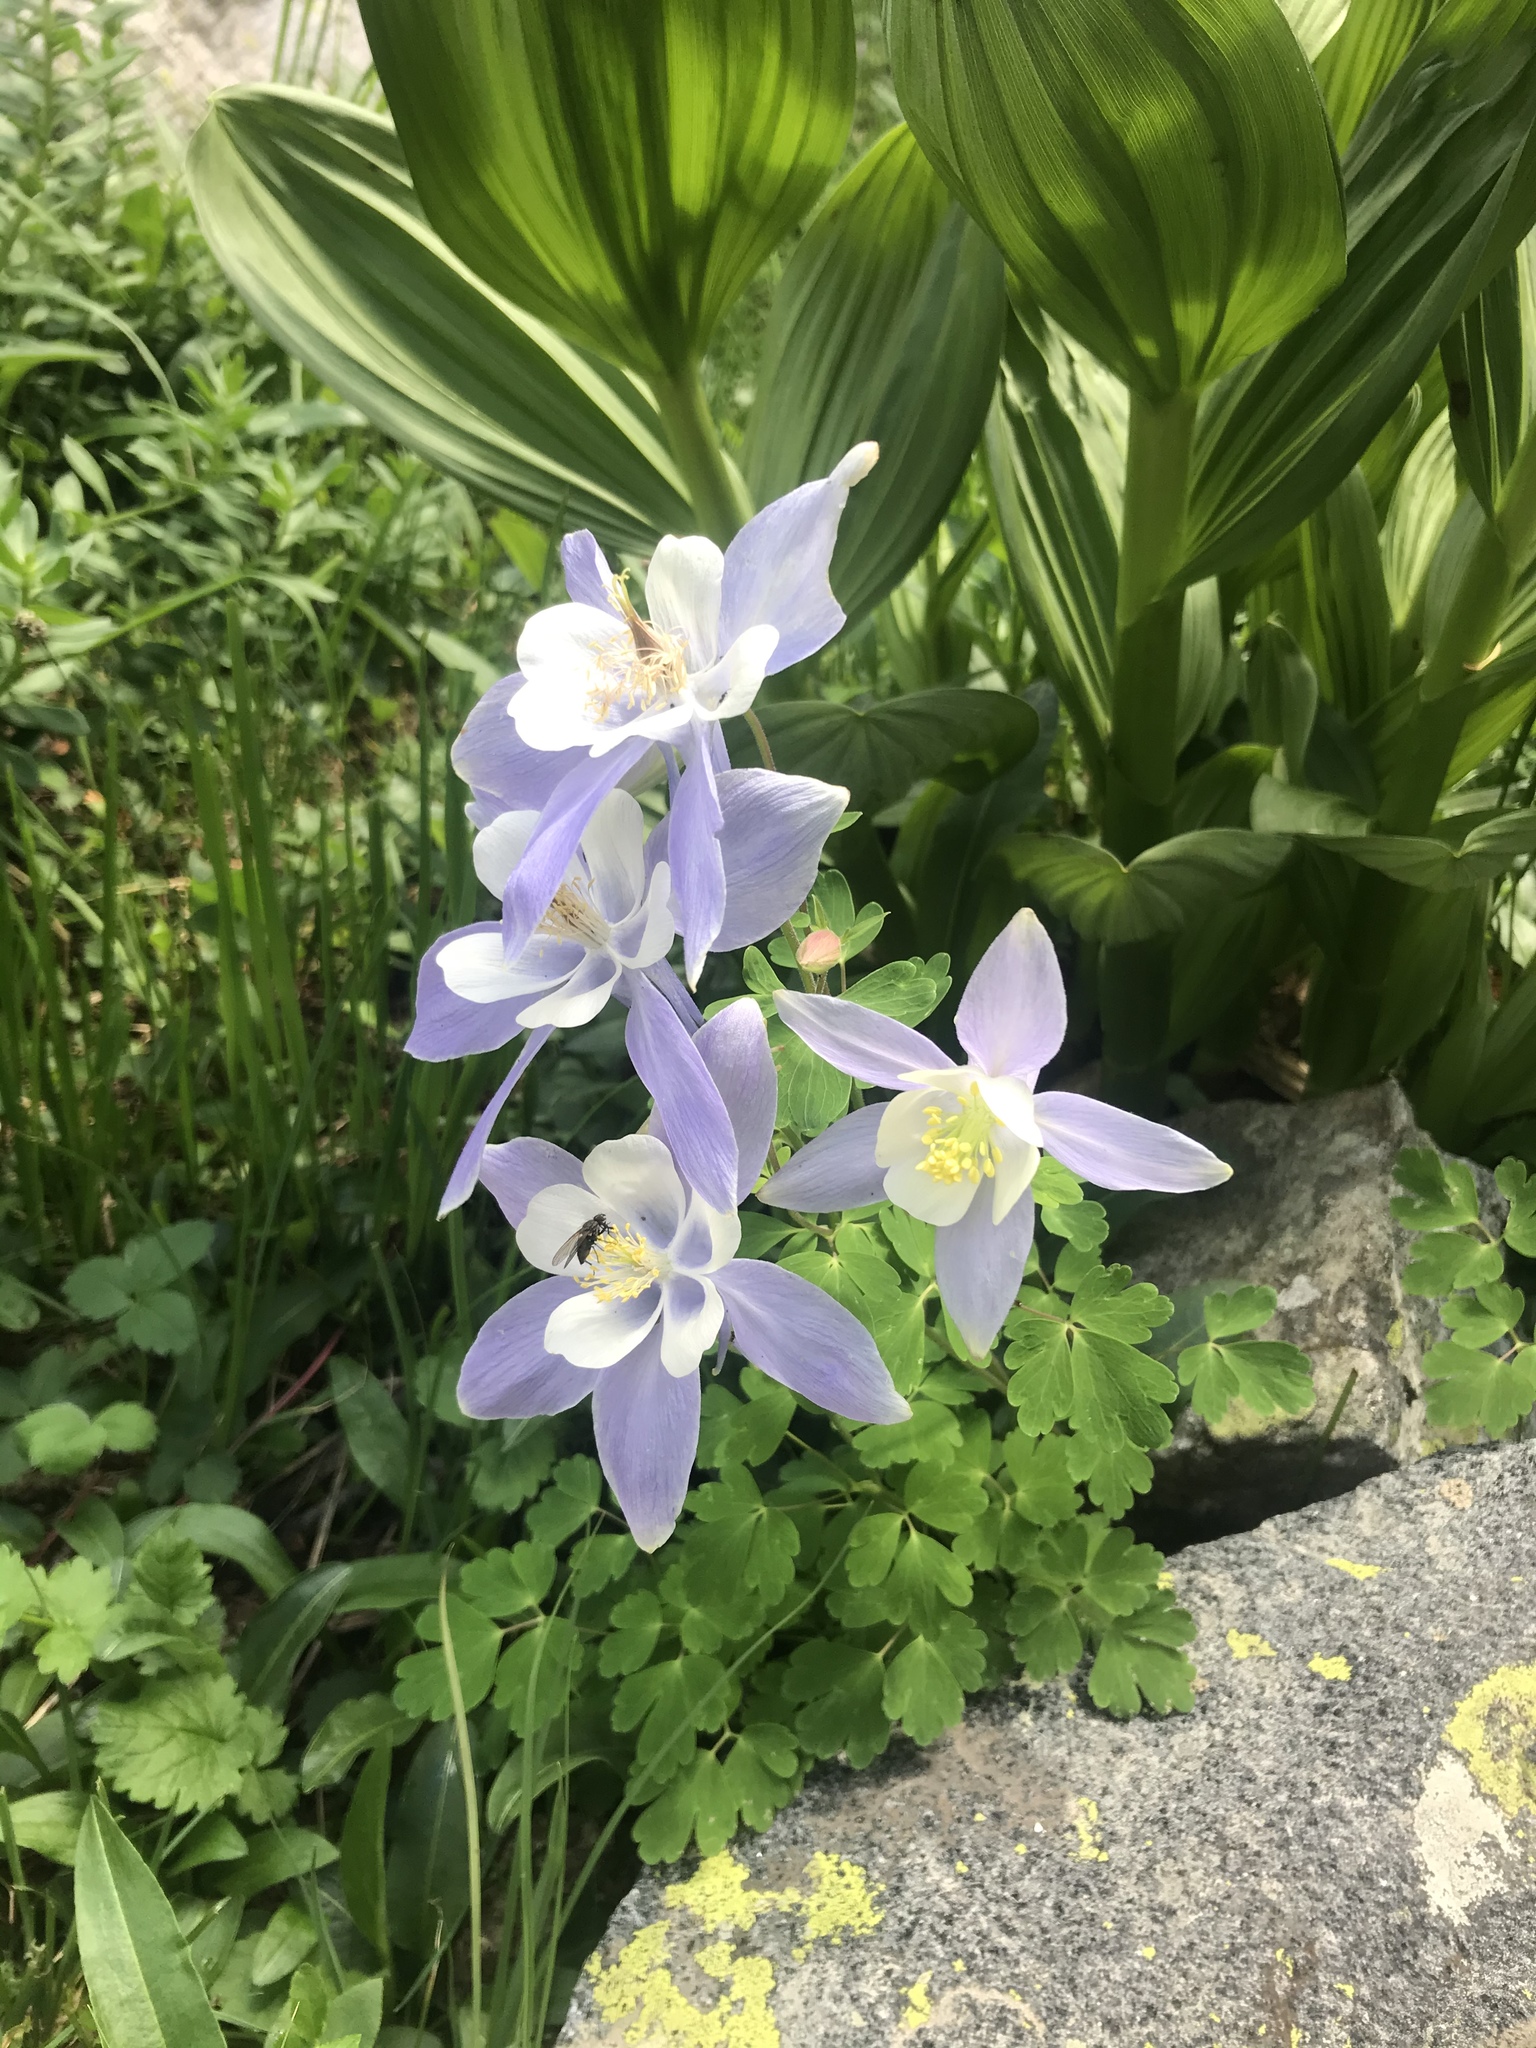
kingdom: Plantae
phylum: Tracheophyta
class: Magnoliopsida
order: Ranunculales
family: Ranunculaceae
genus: Aquilegia
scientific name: Aquilegia coerulea
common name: Rocky mountain columbine
